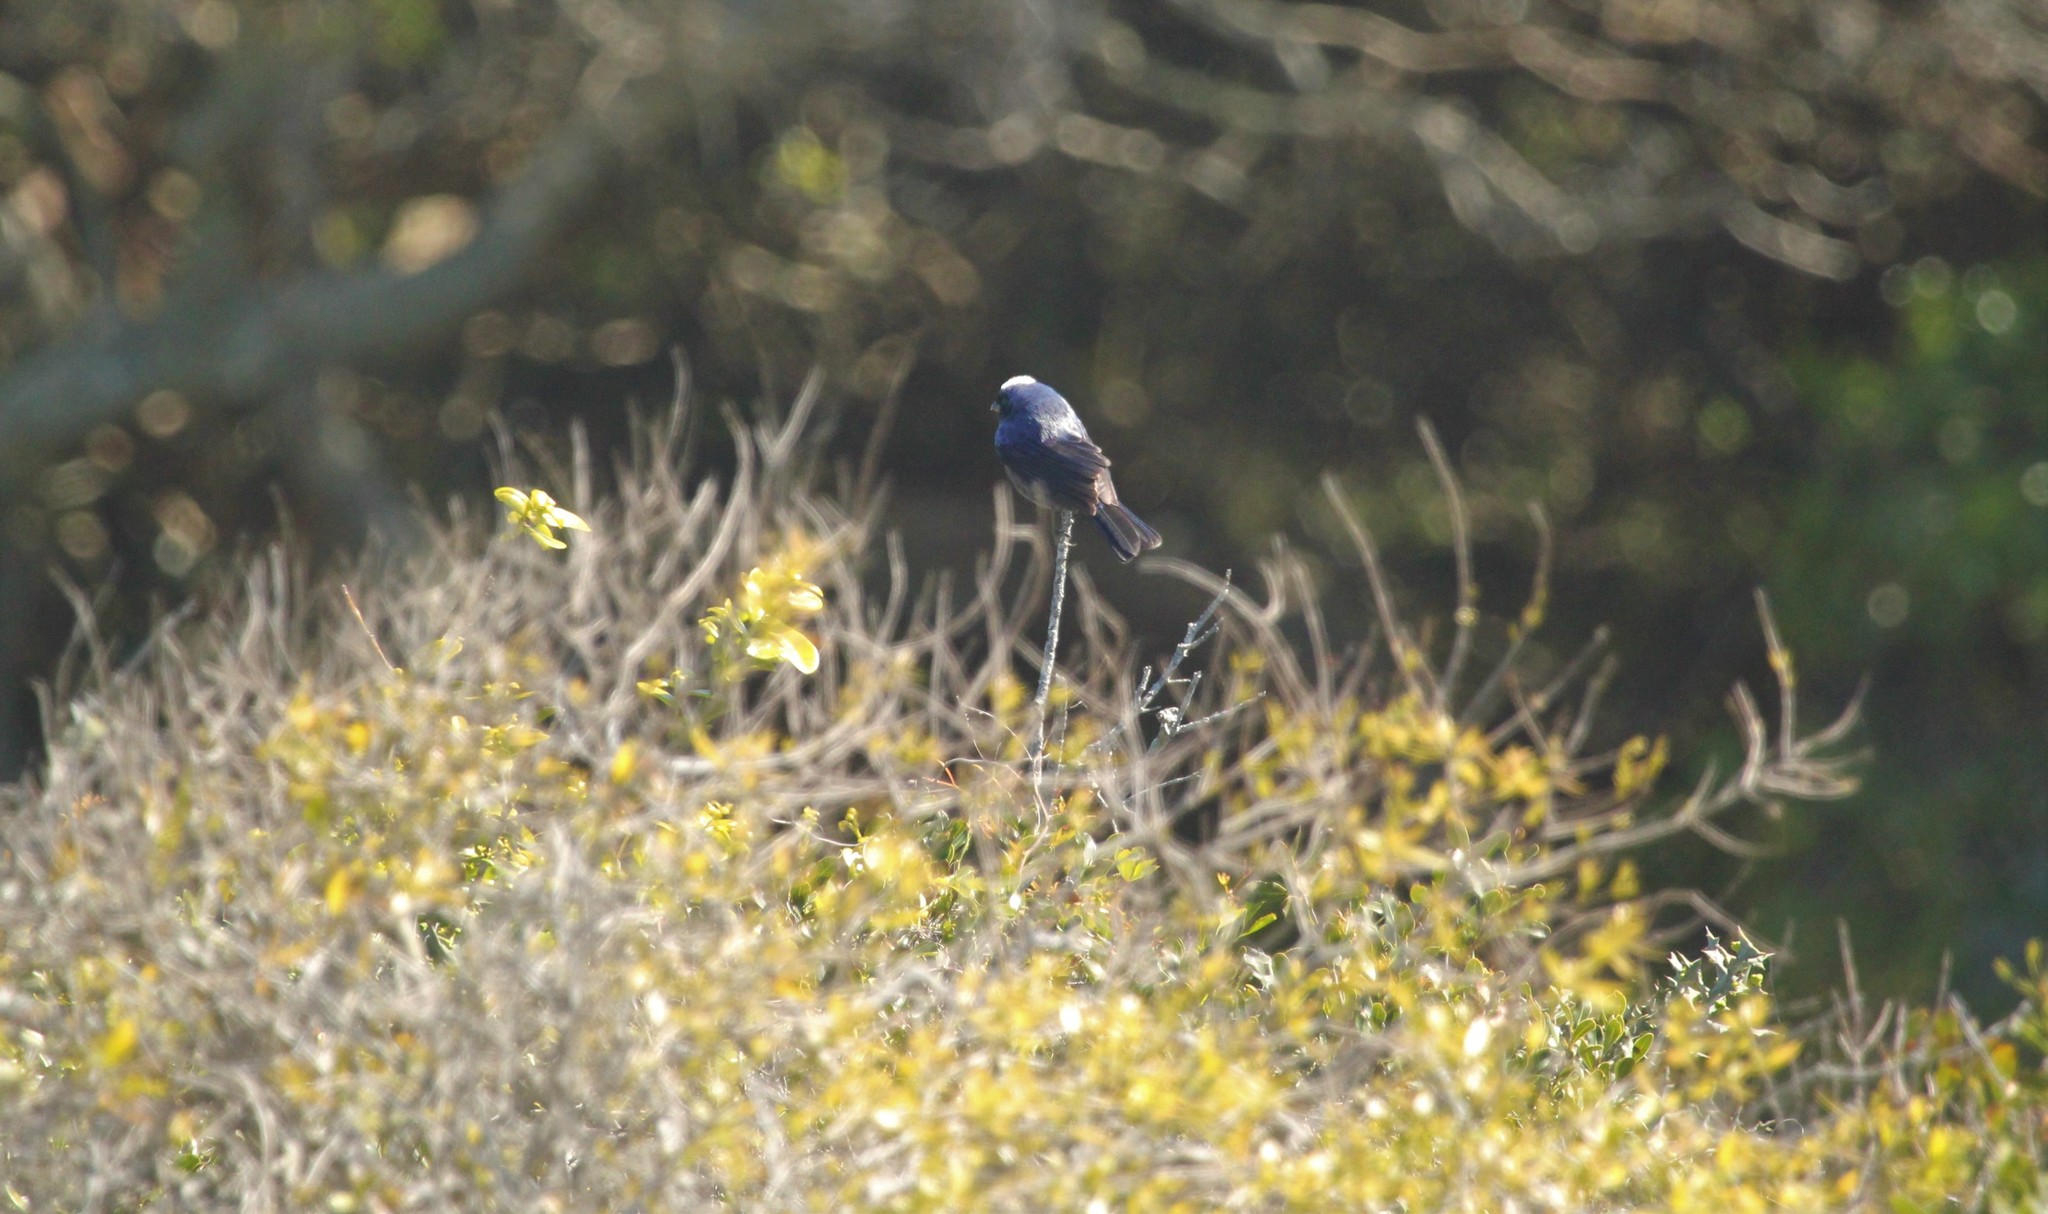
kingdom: Animalia
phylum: Chordata
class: Aves
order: Passeriformes
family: Thraupidae
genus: Stephanophorus
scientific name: Stephanophorus diadematus
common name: Diademed tanager
